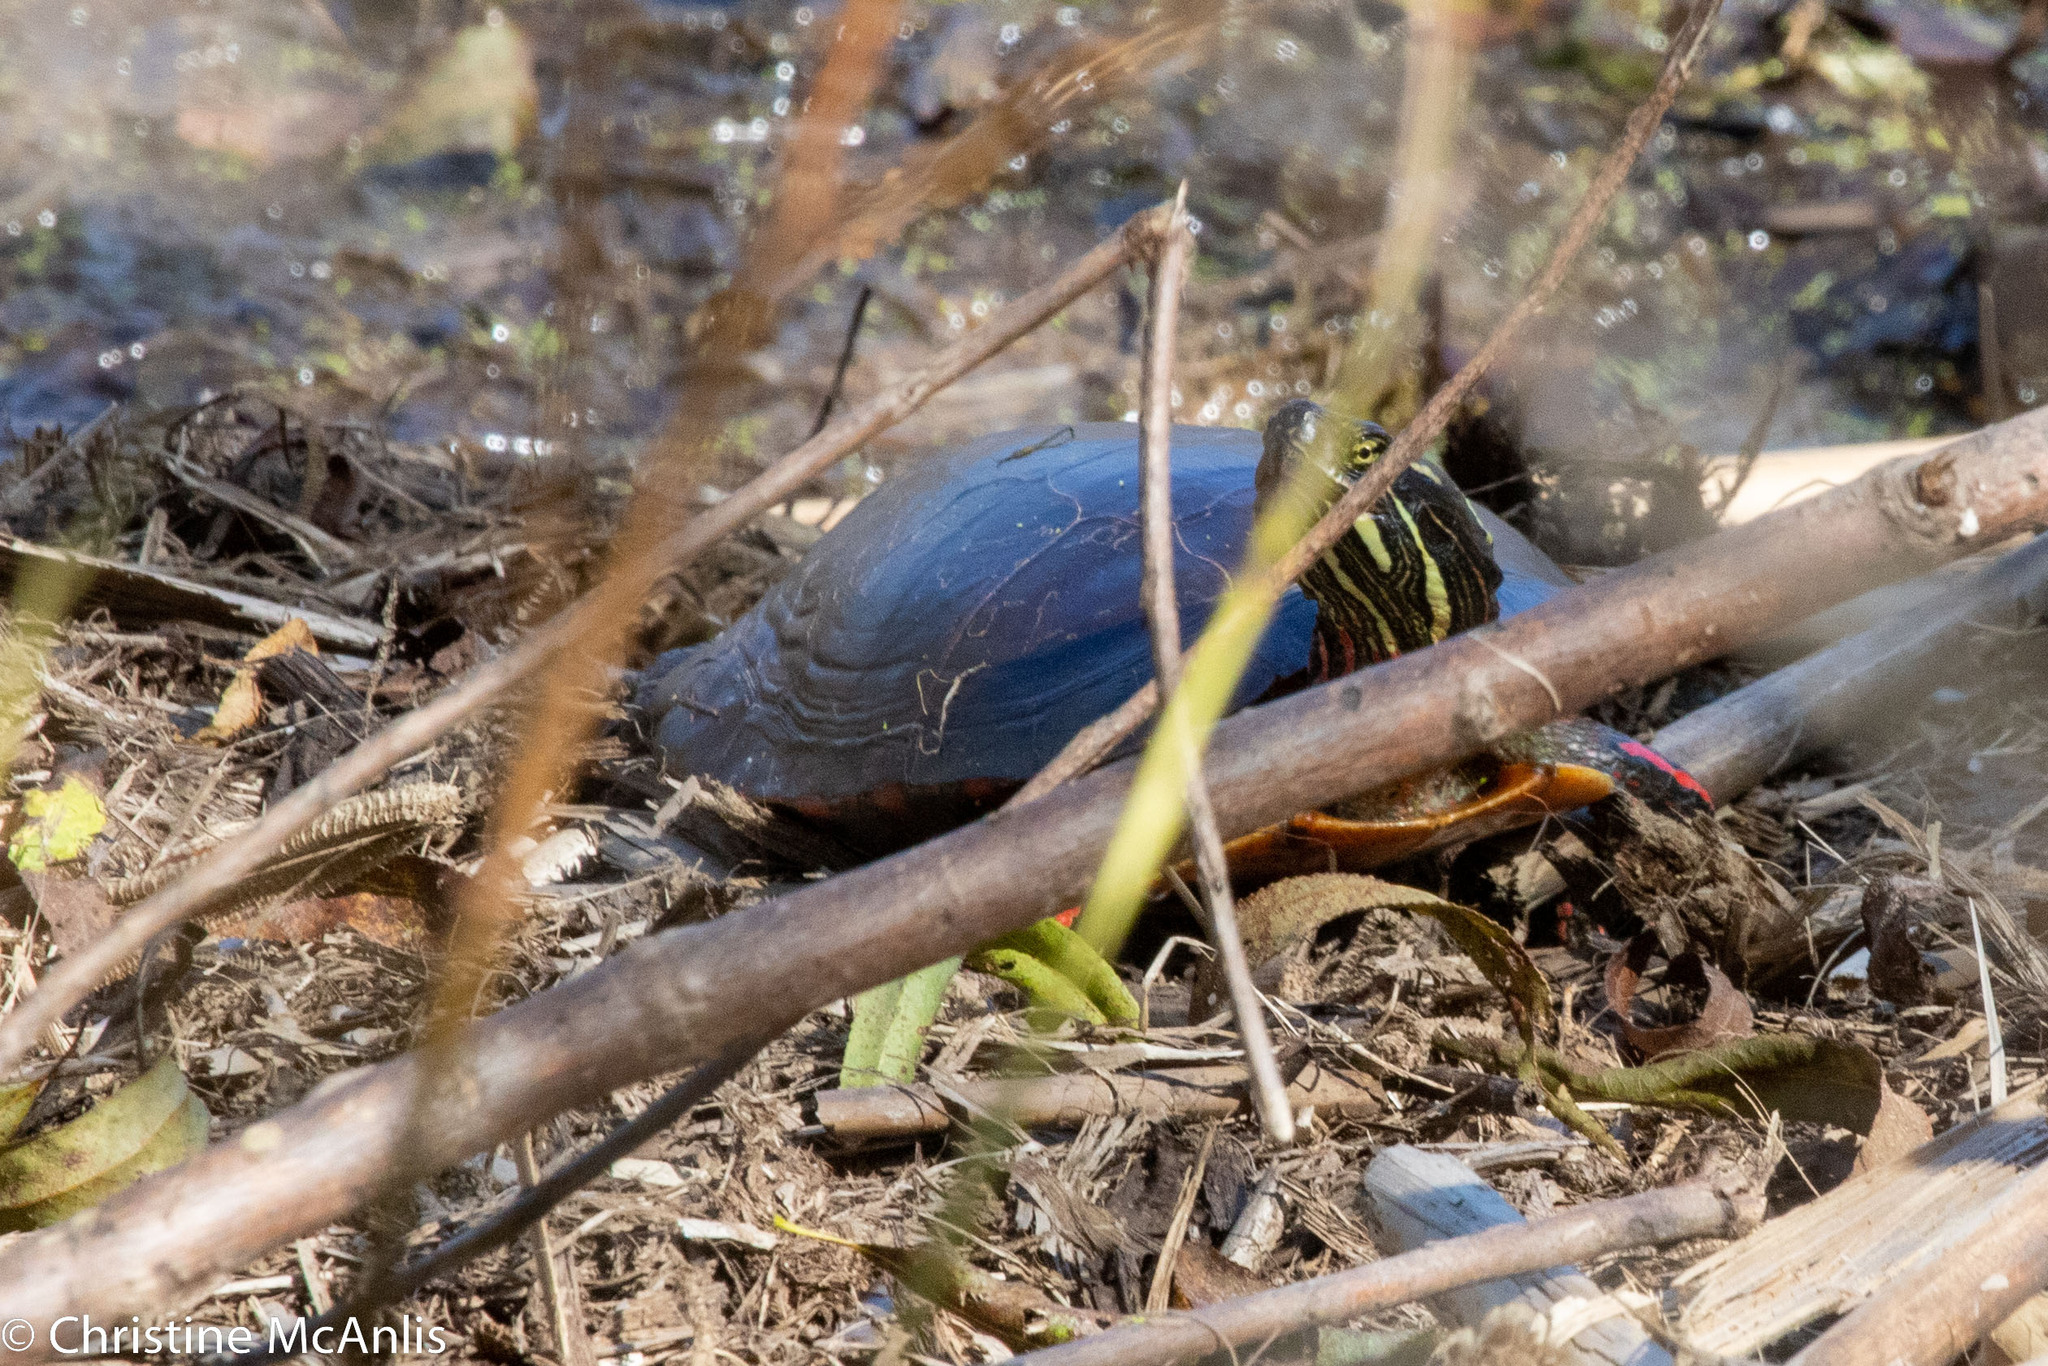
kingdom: Animalia
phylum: Chordata
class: Testudines
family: Emydidae
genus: Chrysemys
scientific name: Chrysemys picta
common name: Painted turtle
